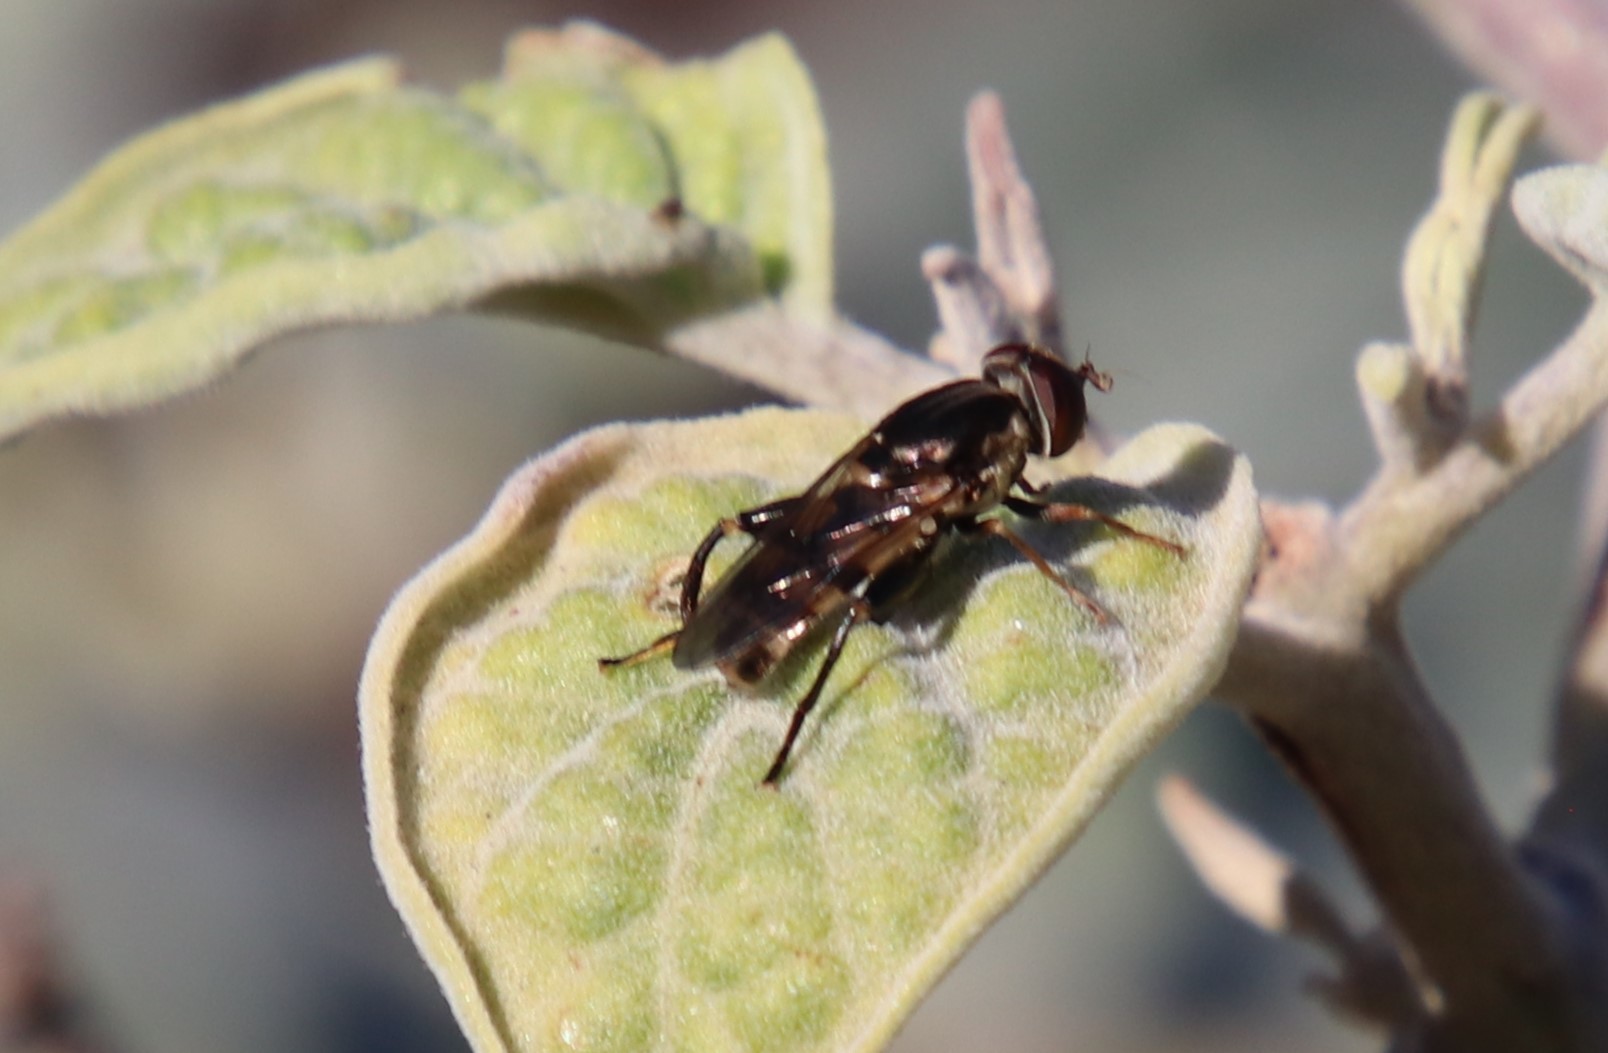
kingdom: Animalia
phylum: Arthropoda
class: Insecta
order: Diptera
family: Syrphidae
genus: Tropidia
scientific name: Tropidia quadrata
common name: Common thick-legged fly
